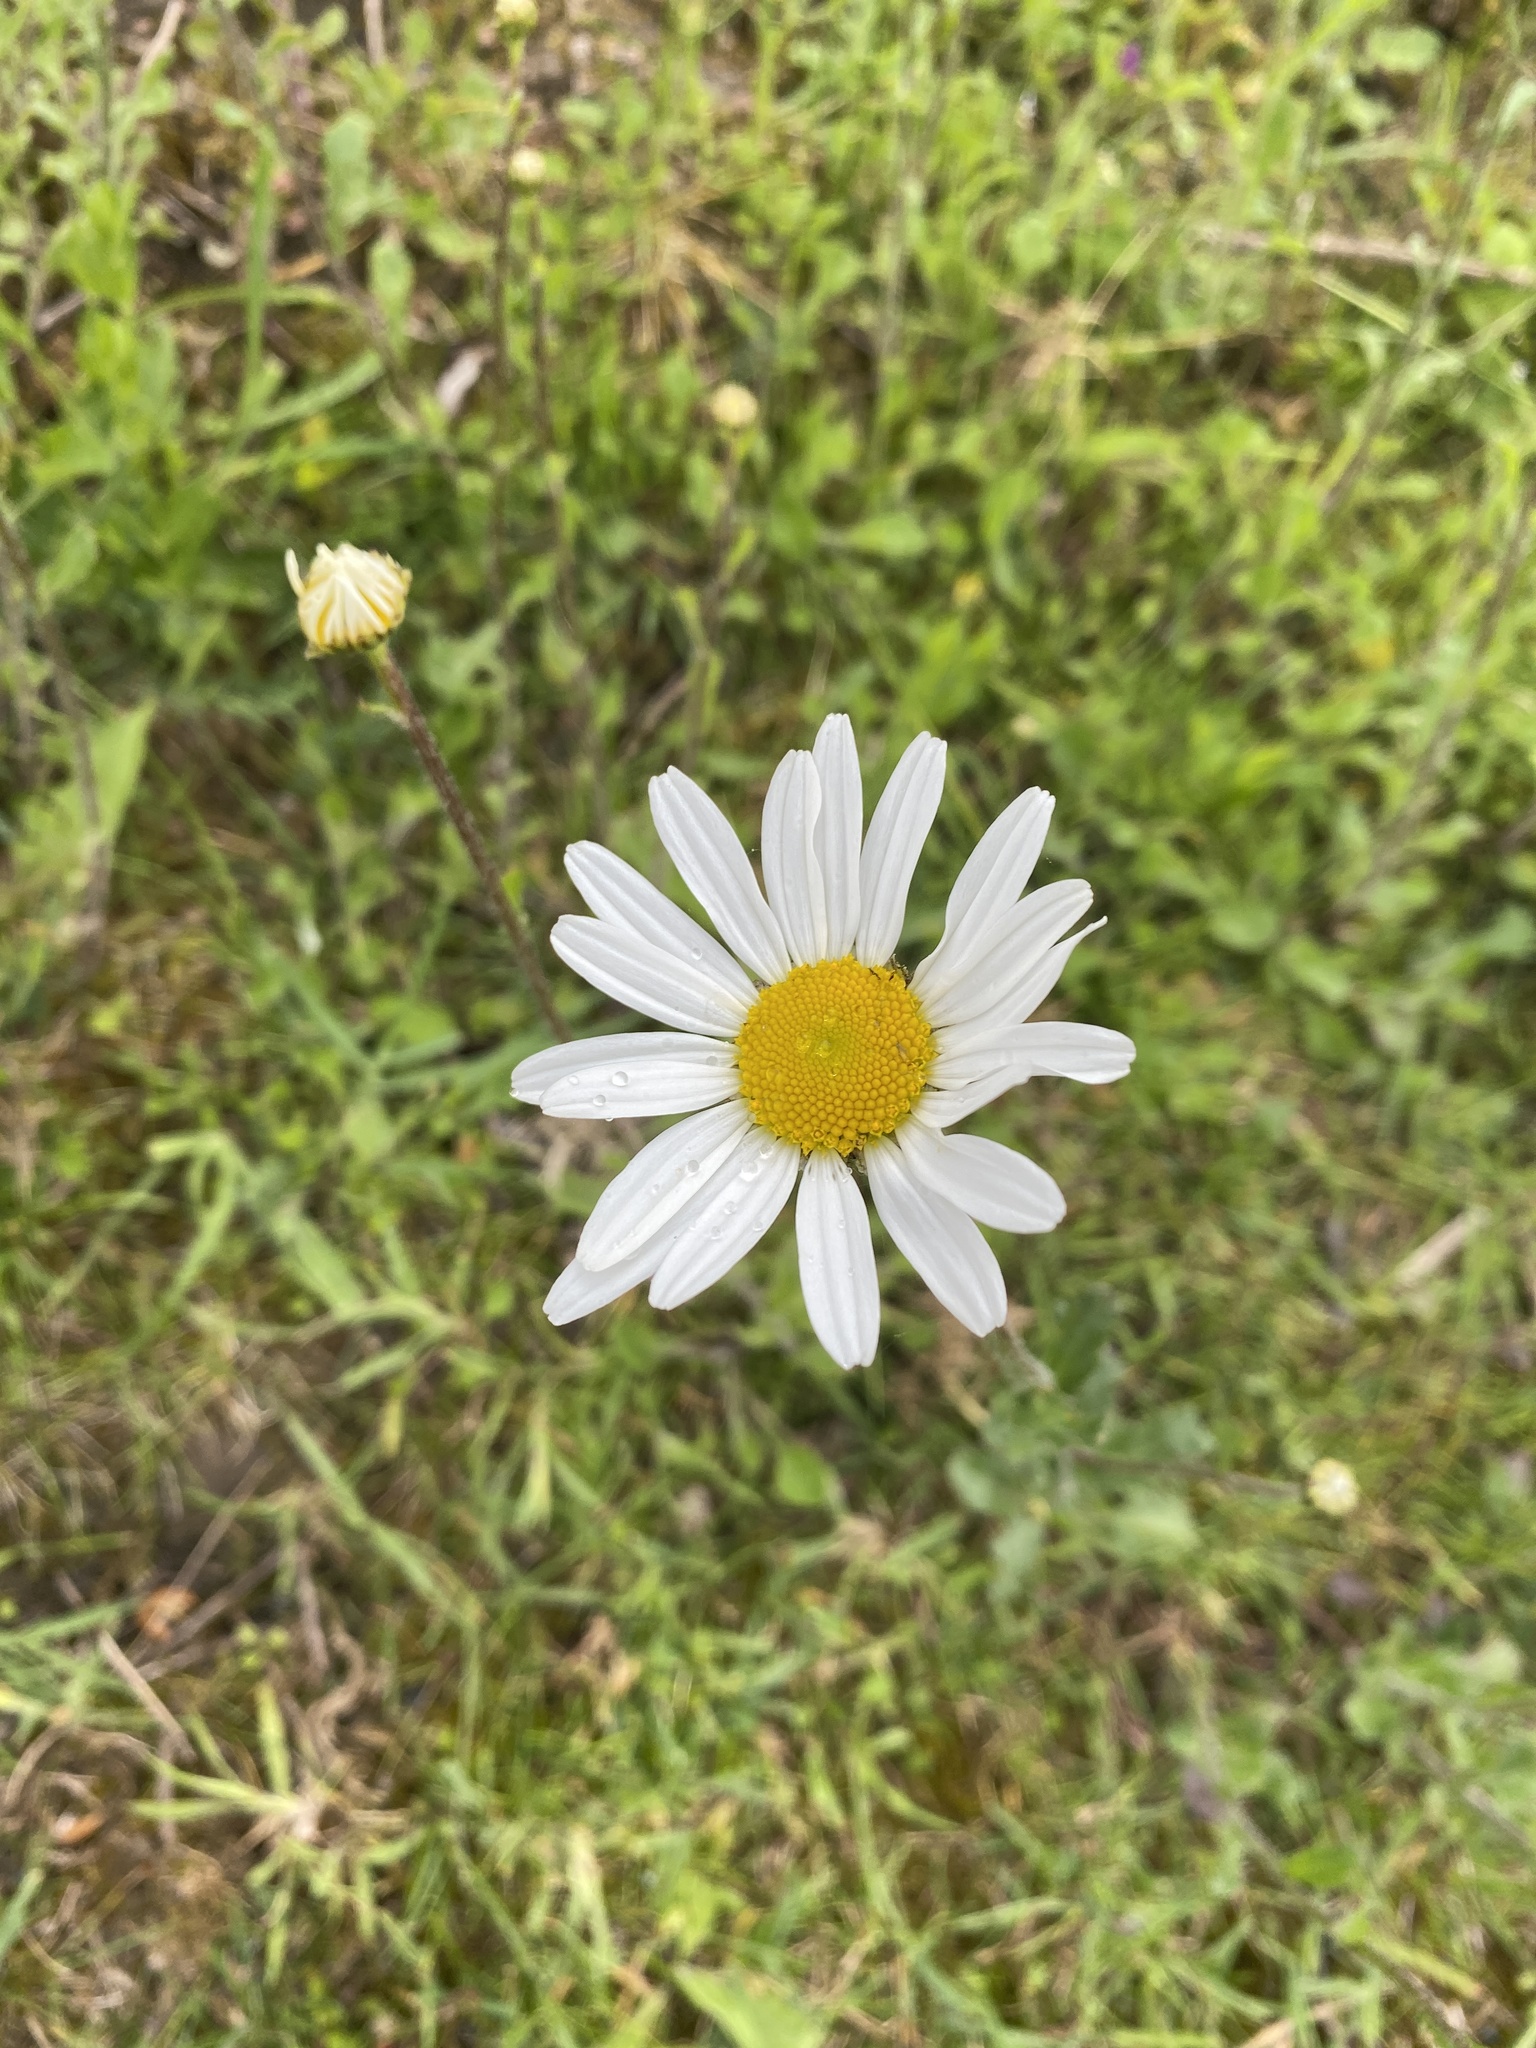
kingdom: Plantae
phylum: Tracheophyta
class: Magnoliopsida
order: Asterales
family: Asteraceae
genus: Leucanthemum
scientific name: Leucanthemum vulgare
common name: Oxeye daisy
